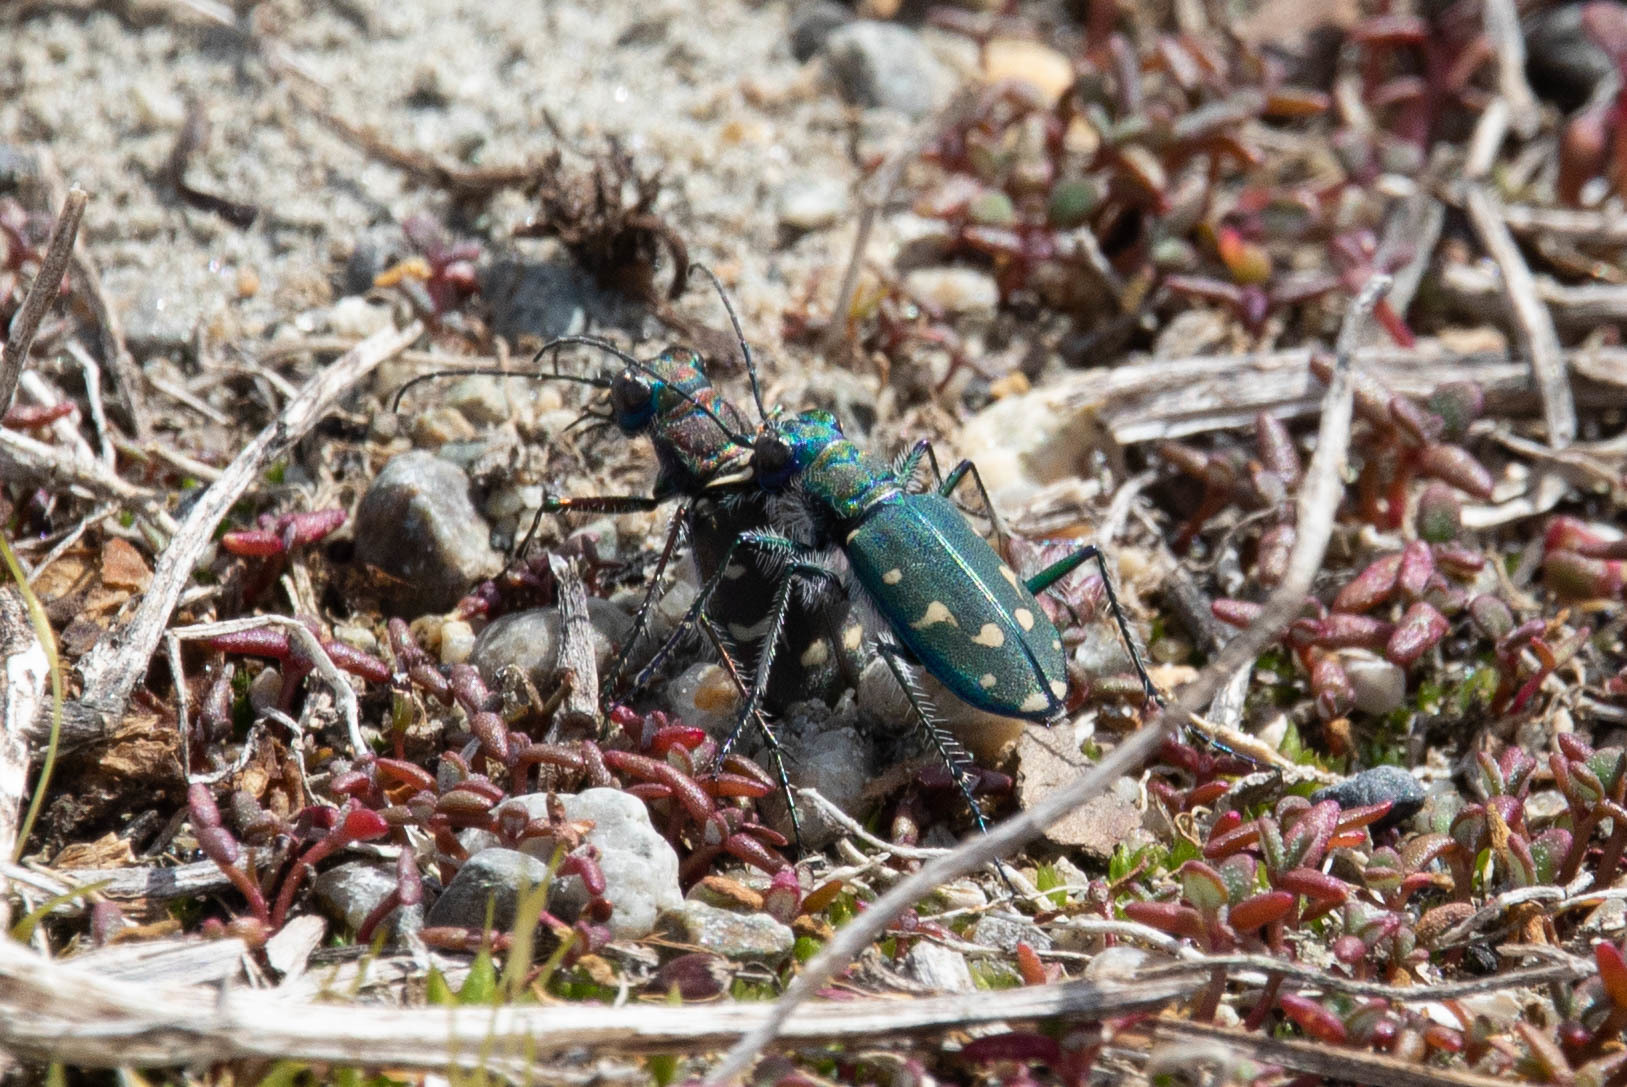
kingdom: Animalia
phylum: Arthropoda
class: Insecta
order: Coleoptera
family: Carabidae
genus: Cicindela
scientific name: Cicindela oregona
